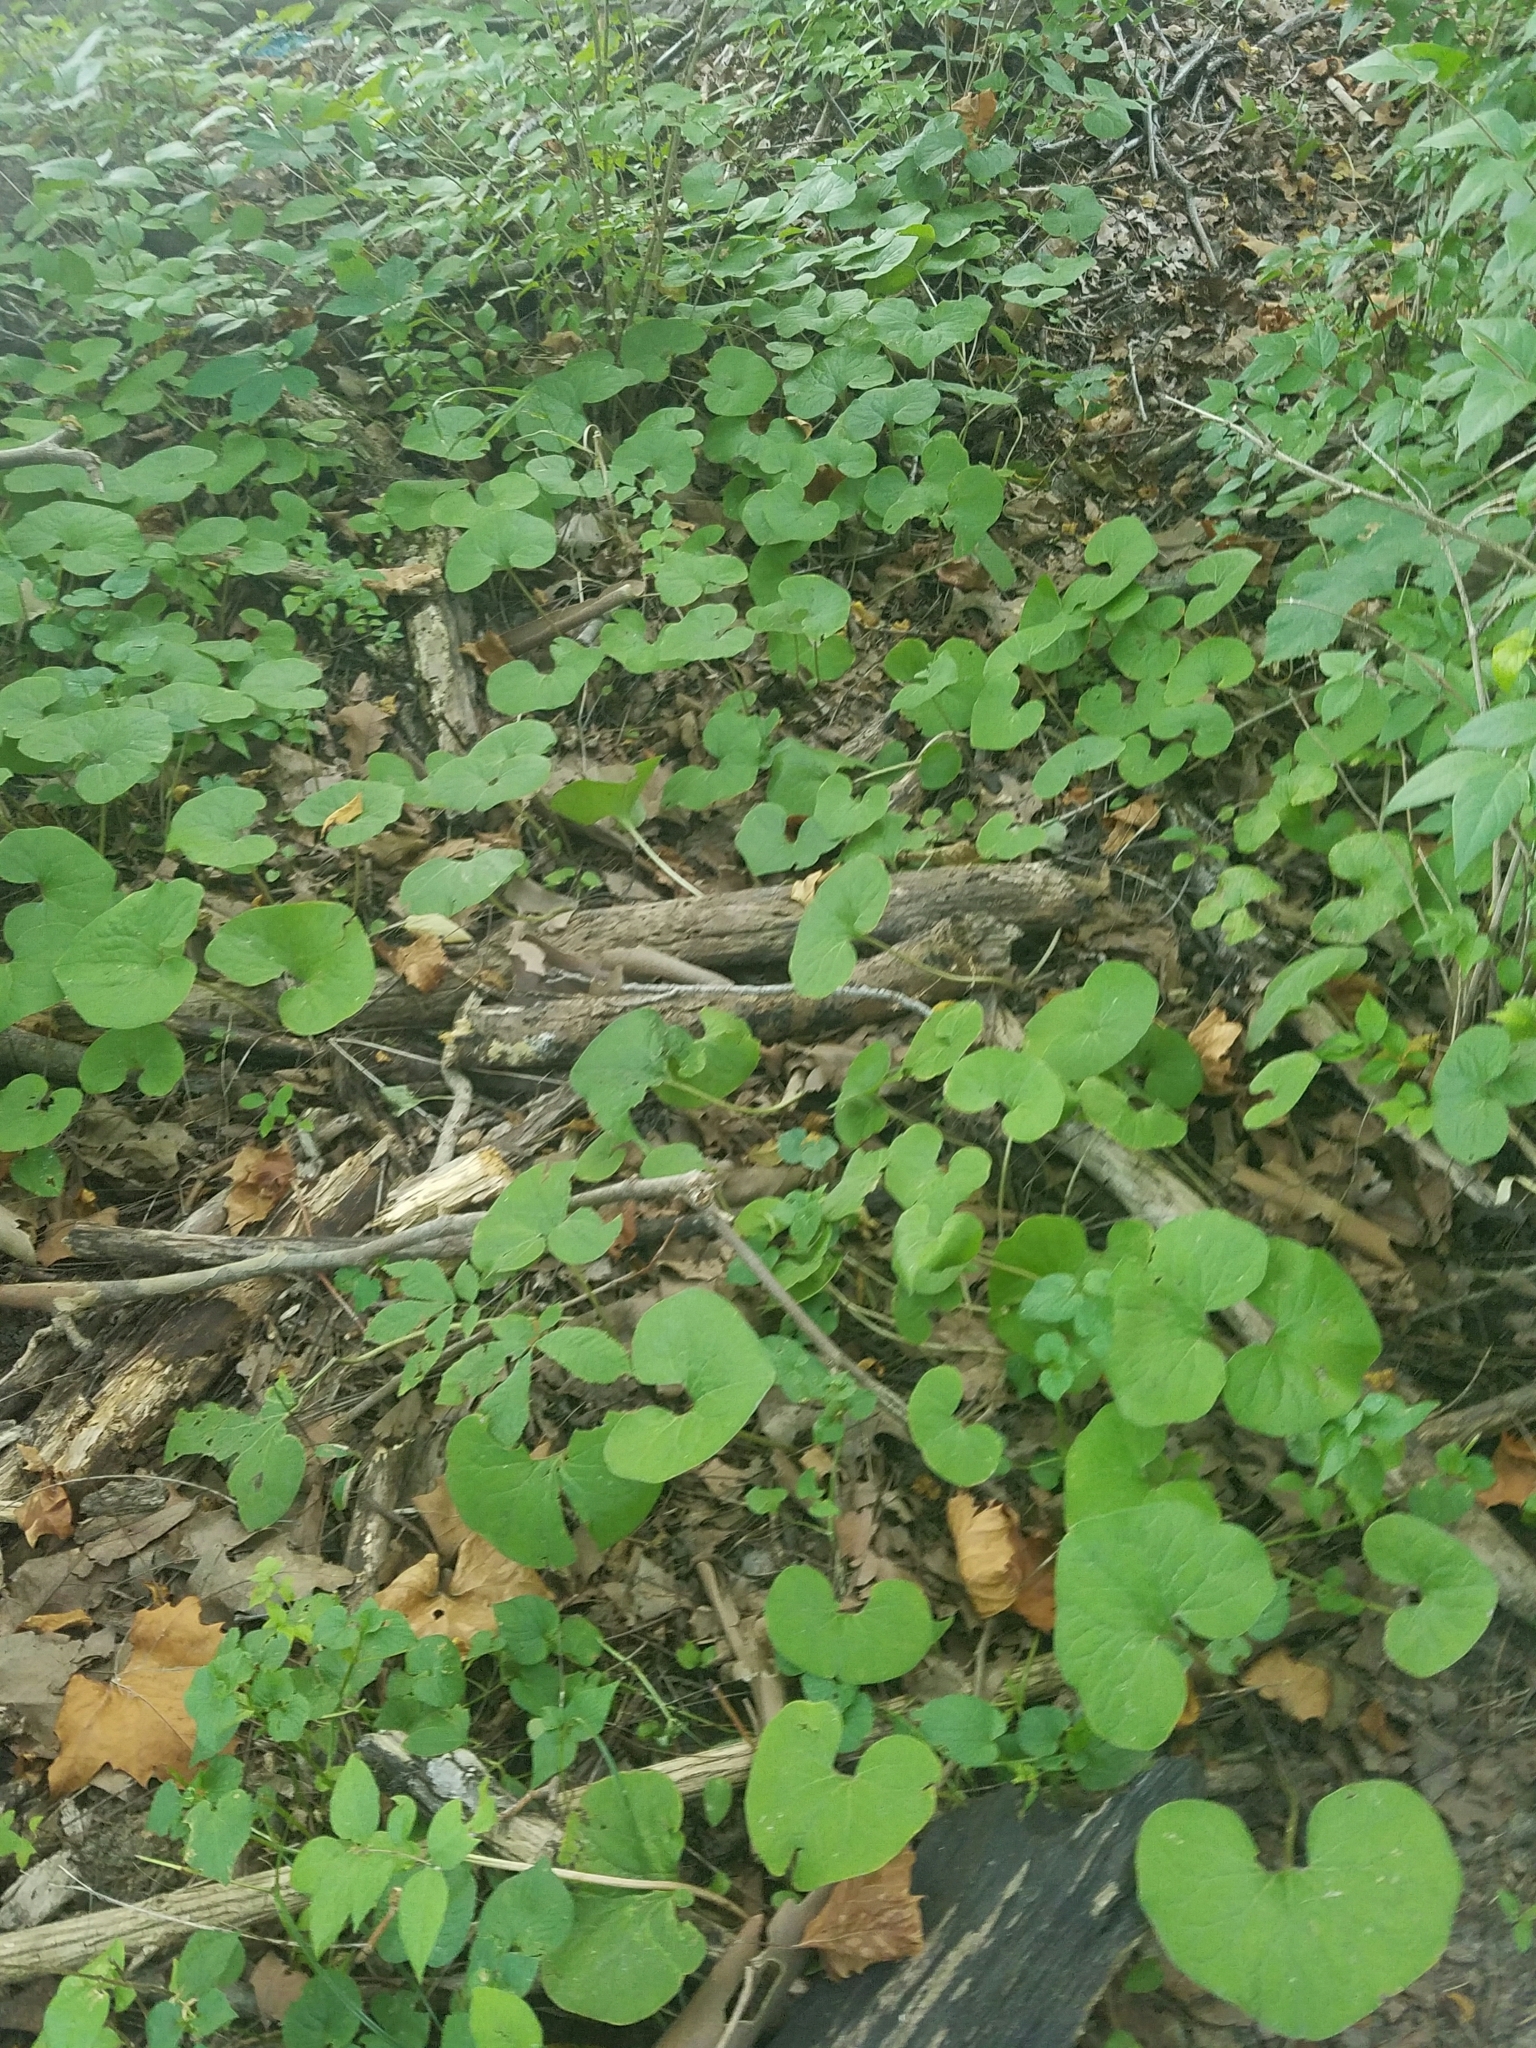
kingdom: Plantae
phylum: Tracheophyta
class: Magnoliopsida
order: Piperales
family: Aristolochiaceae
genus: Asarum
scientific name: Asarum canadense
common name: Wild ginger
